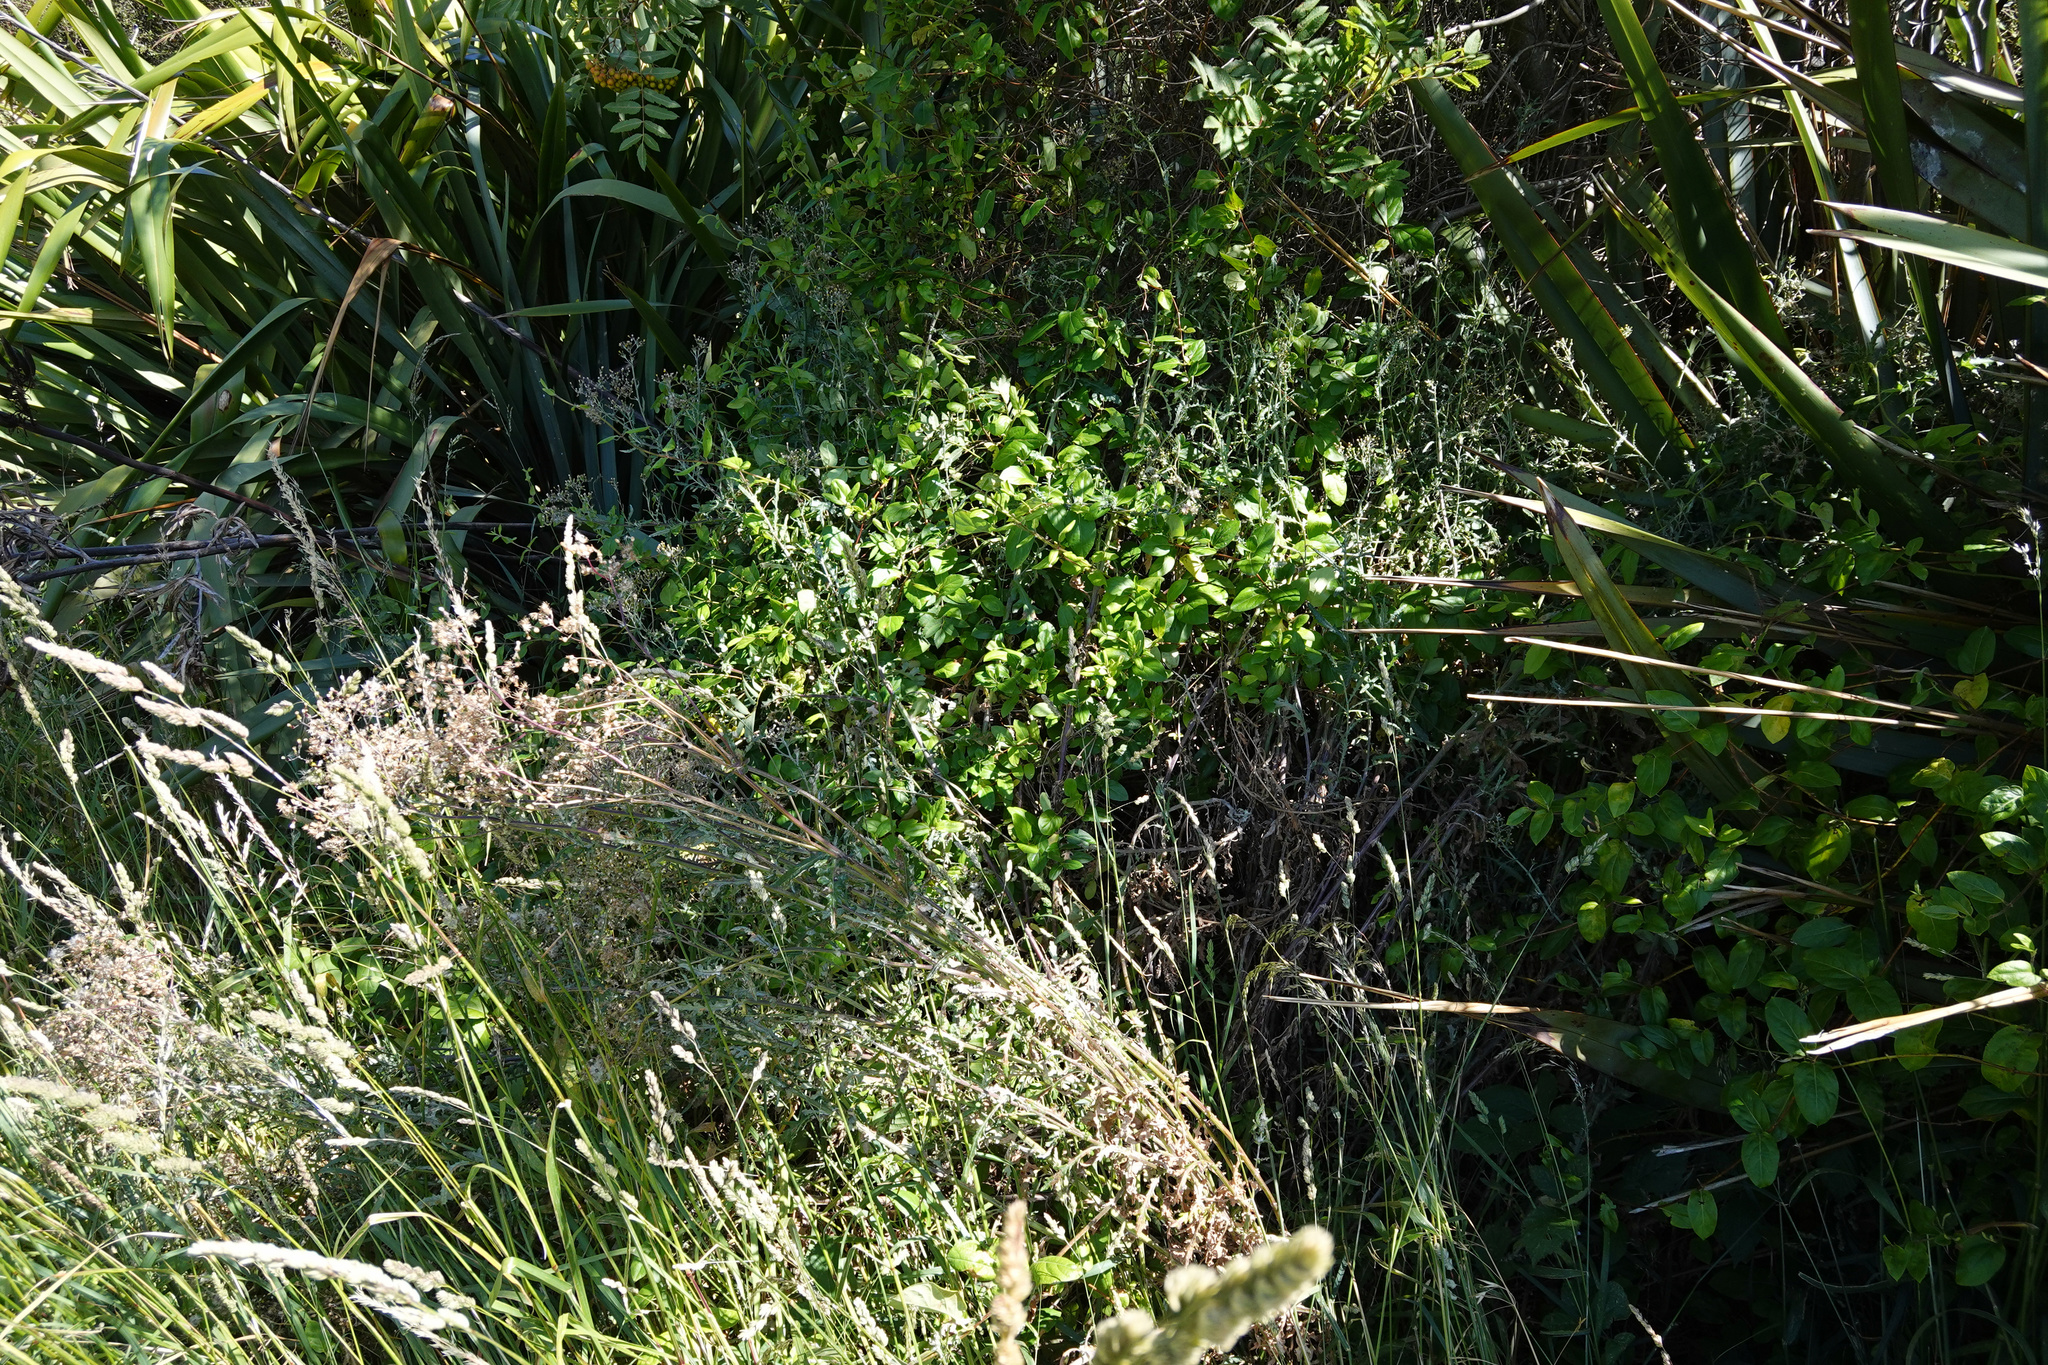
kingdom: Plantae
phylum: Tracheophyta
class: Magnoliopsida
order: Asterales
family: Asteraceae
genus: Senecio
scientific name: Senecio glomeratus
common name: Cutleaf burnweed
